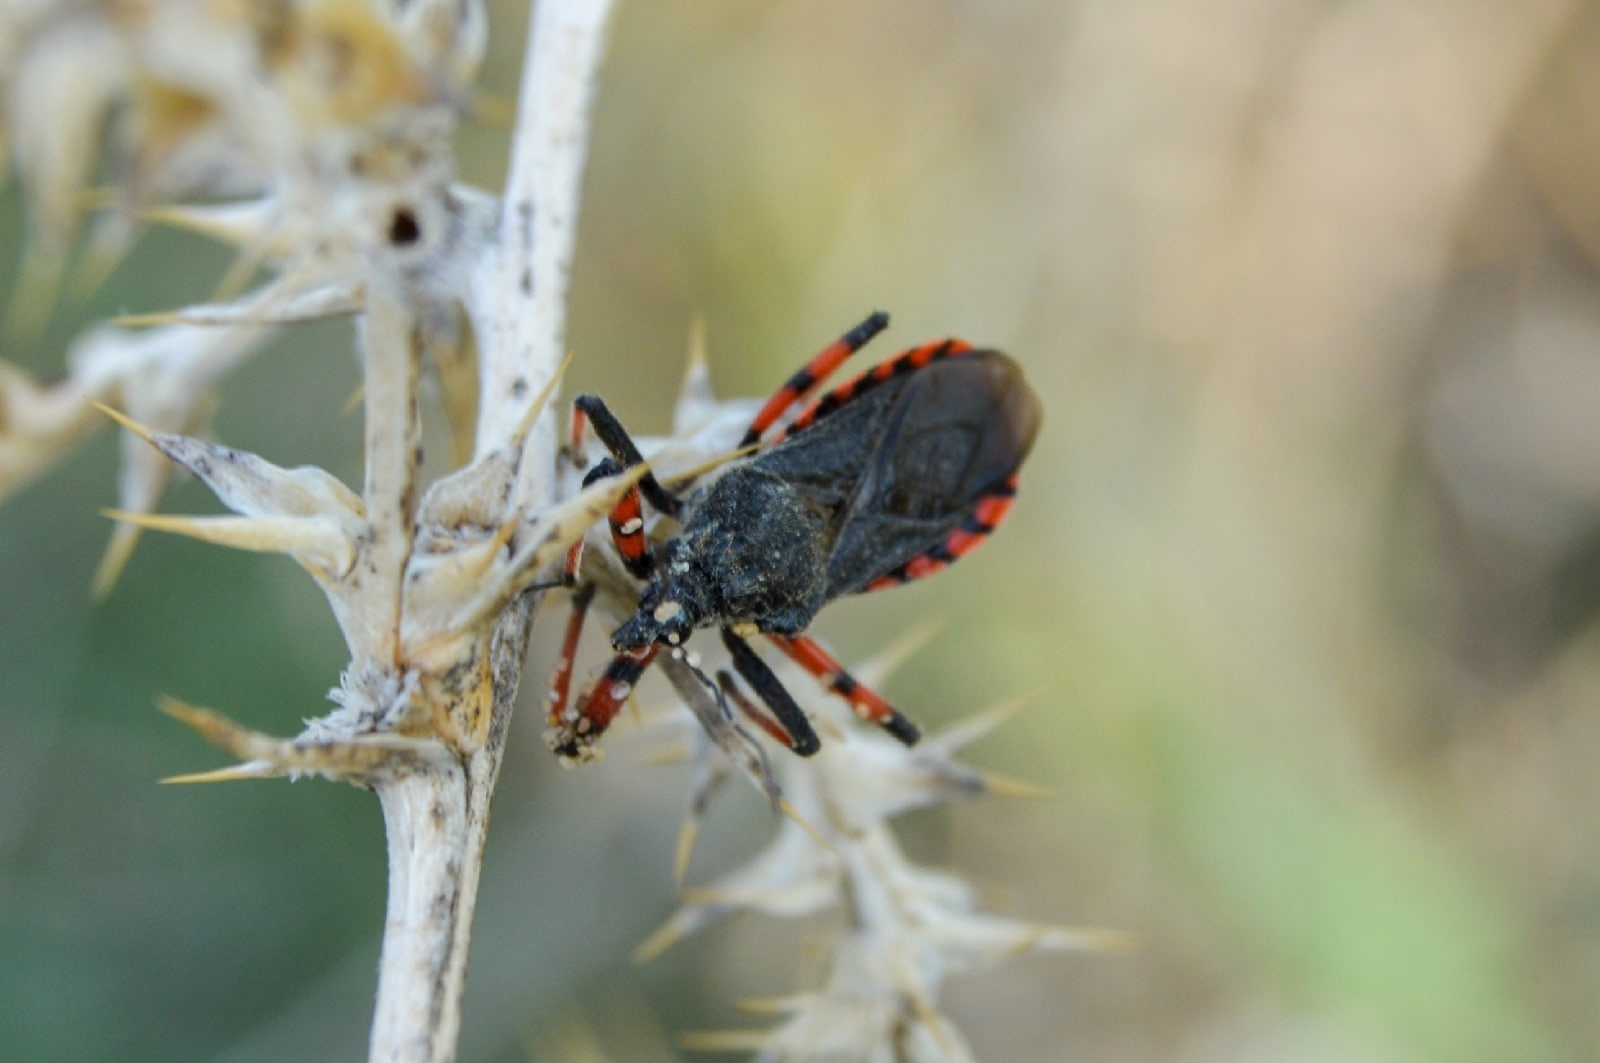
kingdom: Animalia
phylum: Arthropoda
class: Insecta
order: Hemiptera
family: Reduviidae
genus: Rhynocoris
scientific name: Rhynocoris annulatus
